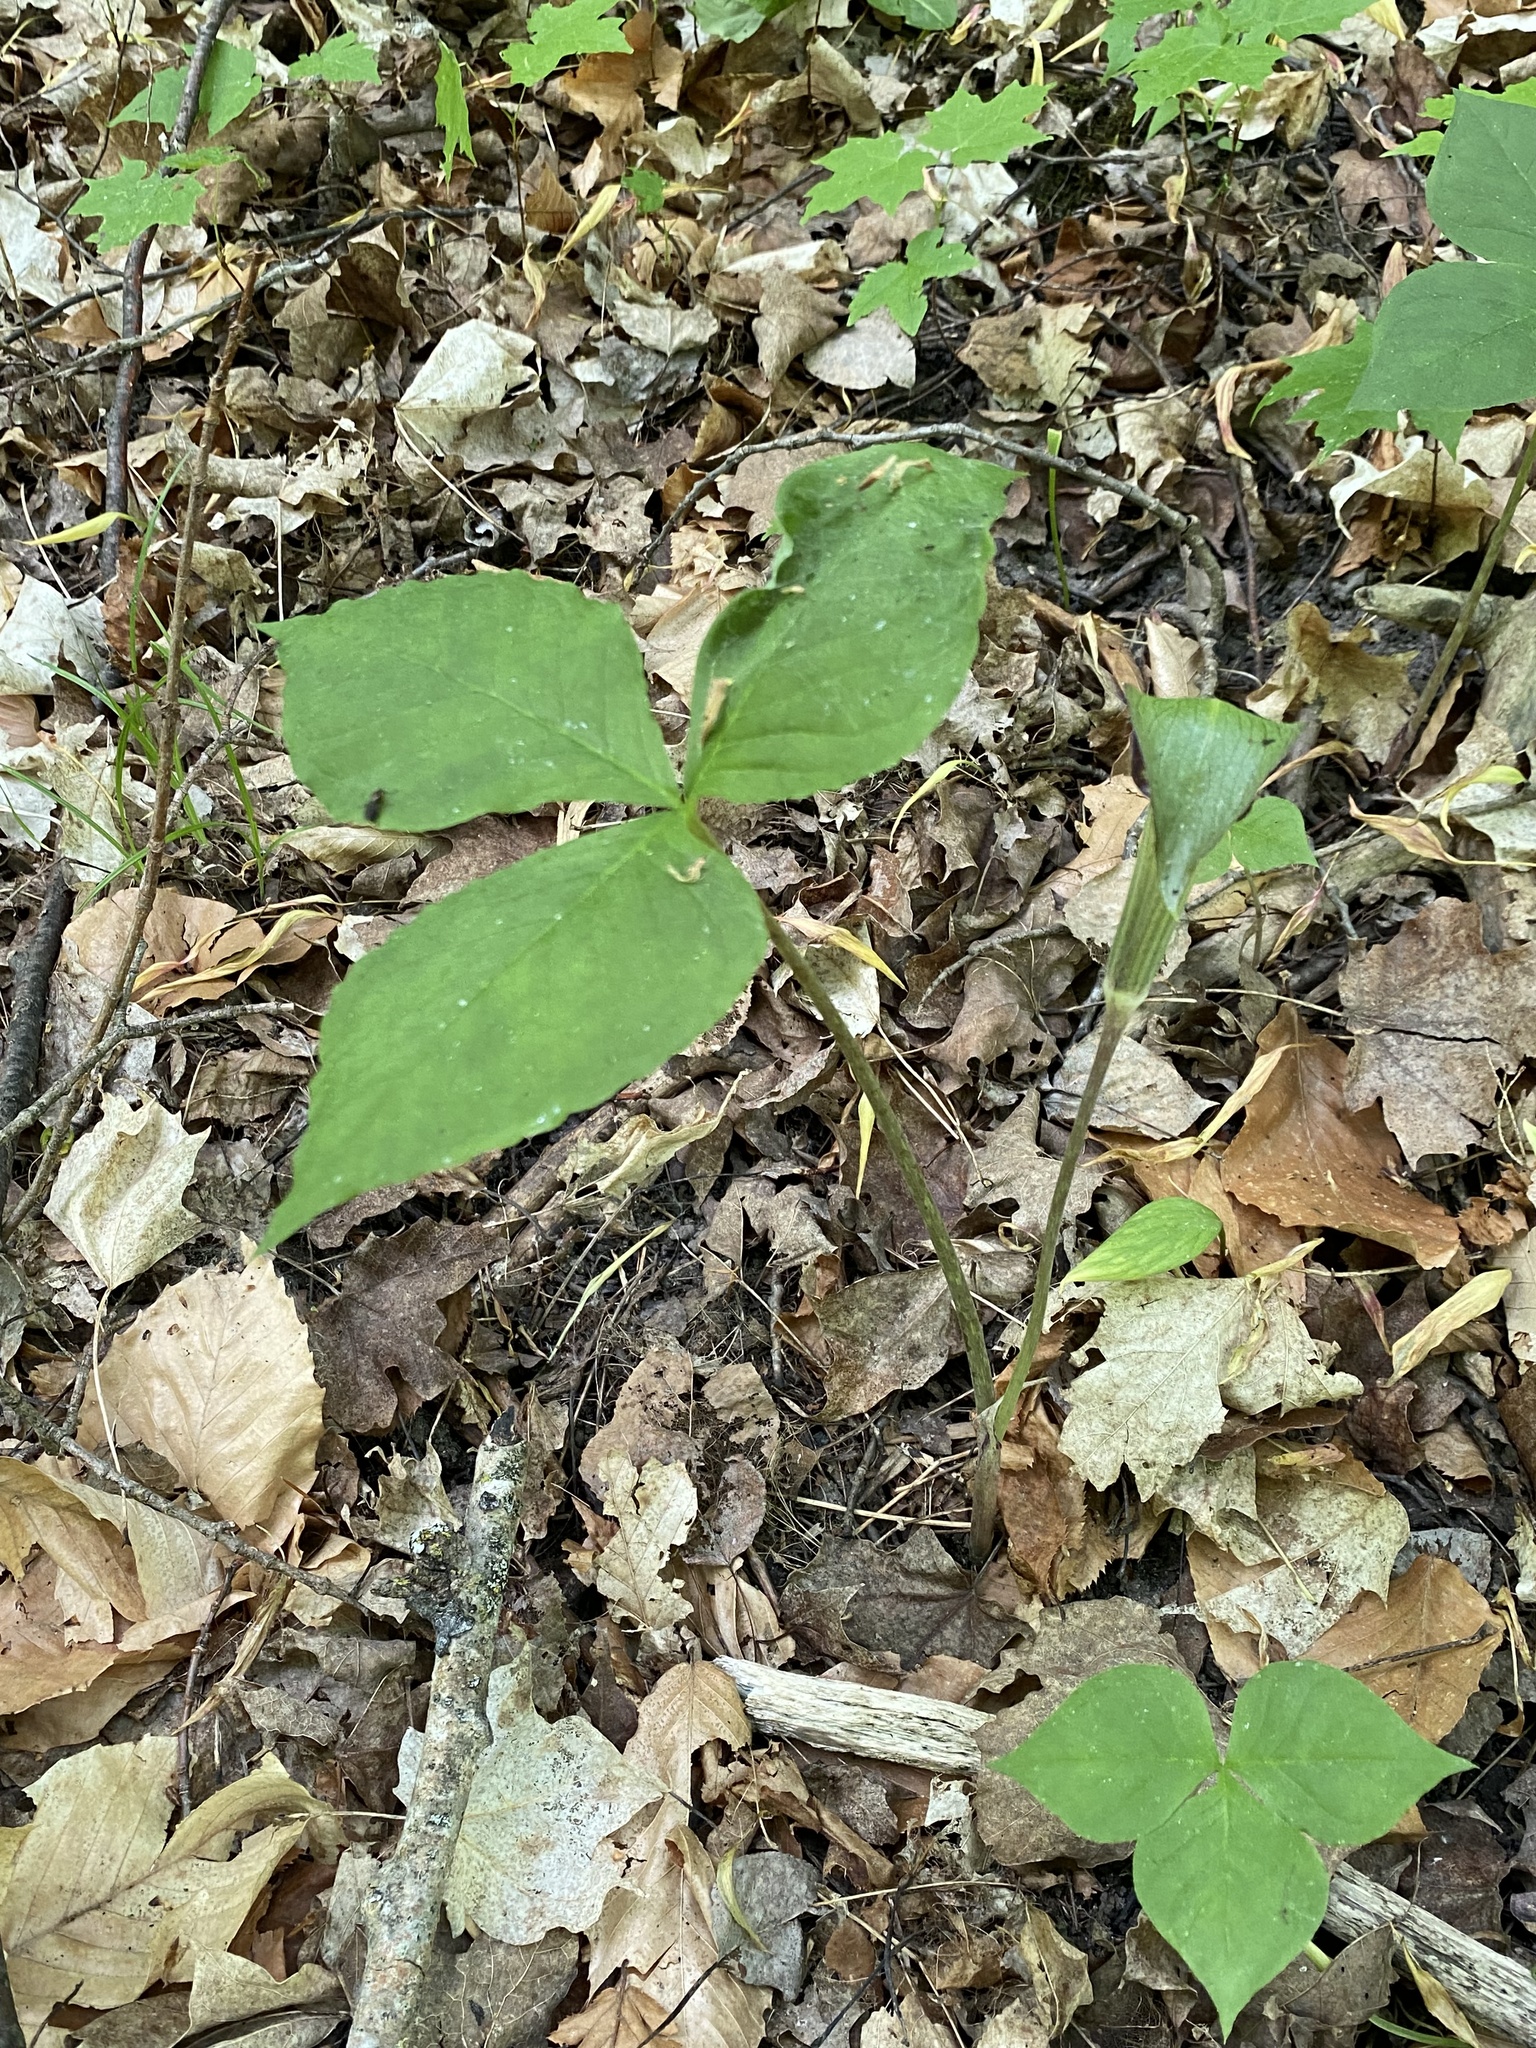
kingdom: Plantae
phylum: Tracheophyta
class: Liliopsida
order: Alismatales
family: Araceae
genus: Arisaema
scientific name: Arisaema triphyllum
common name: Jack-in-the-pulpit
